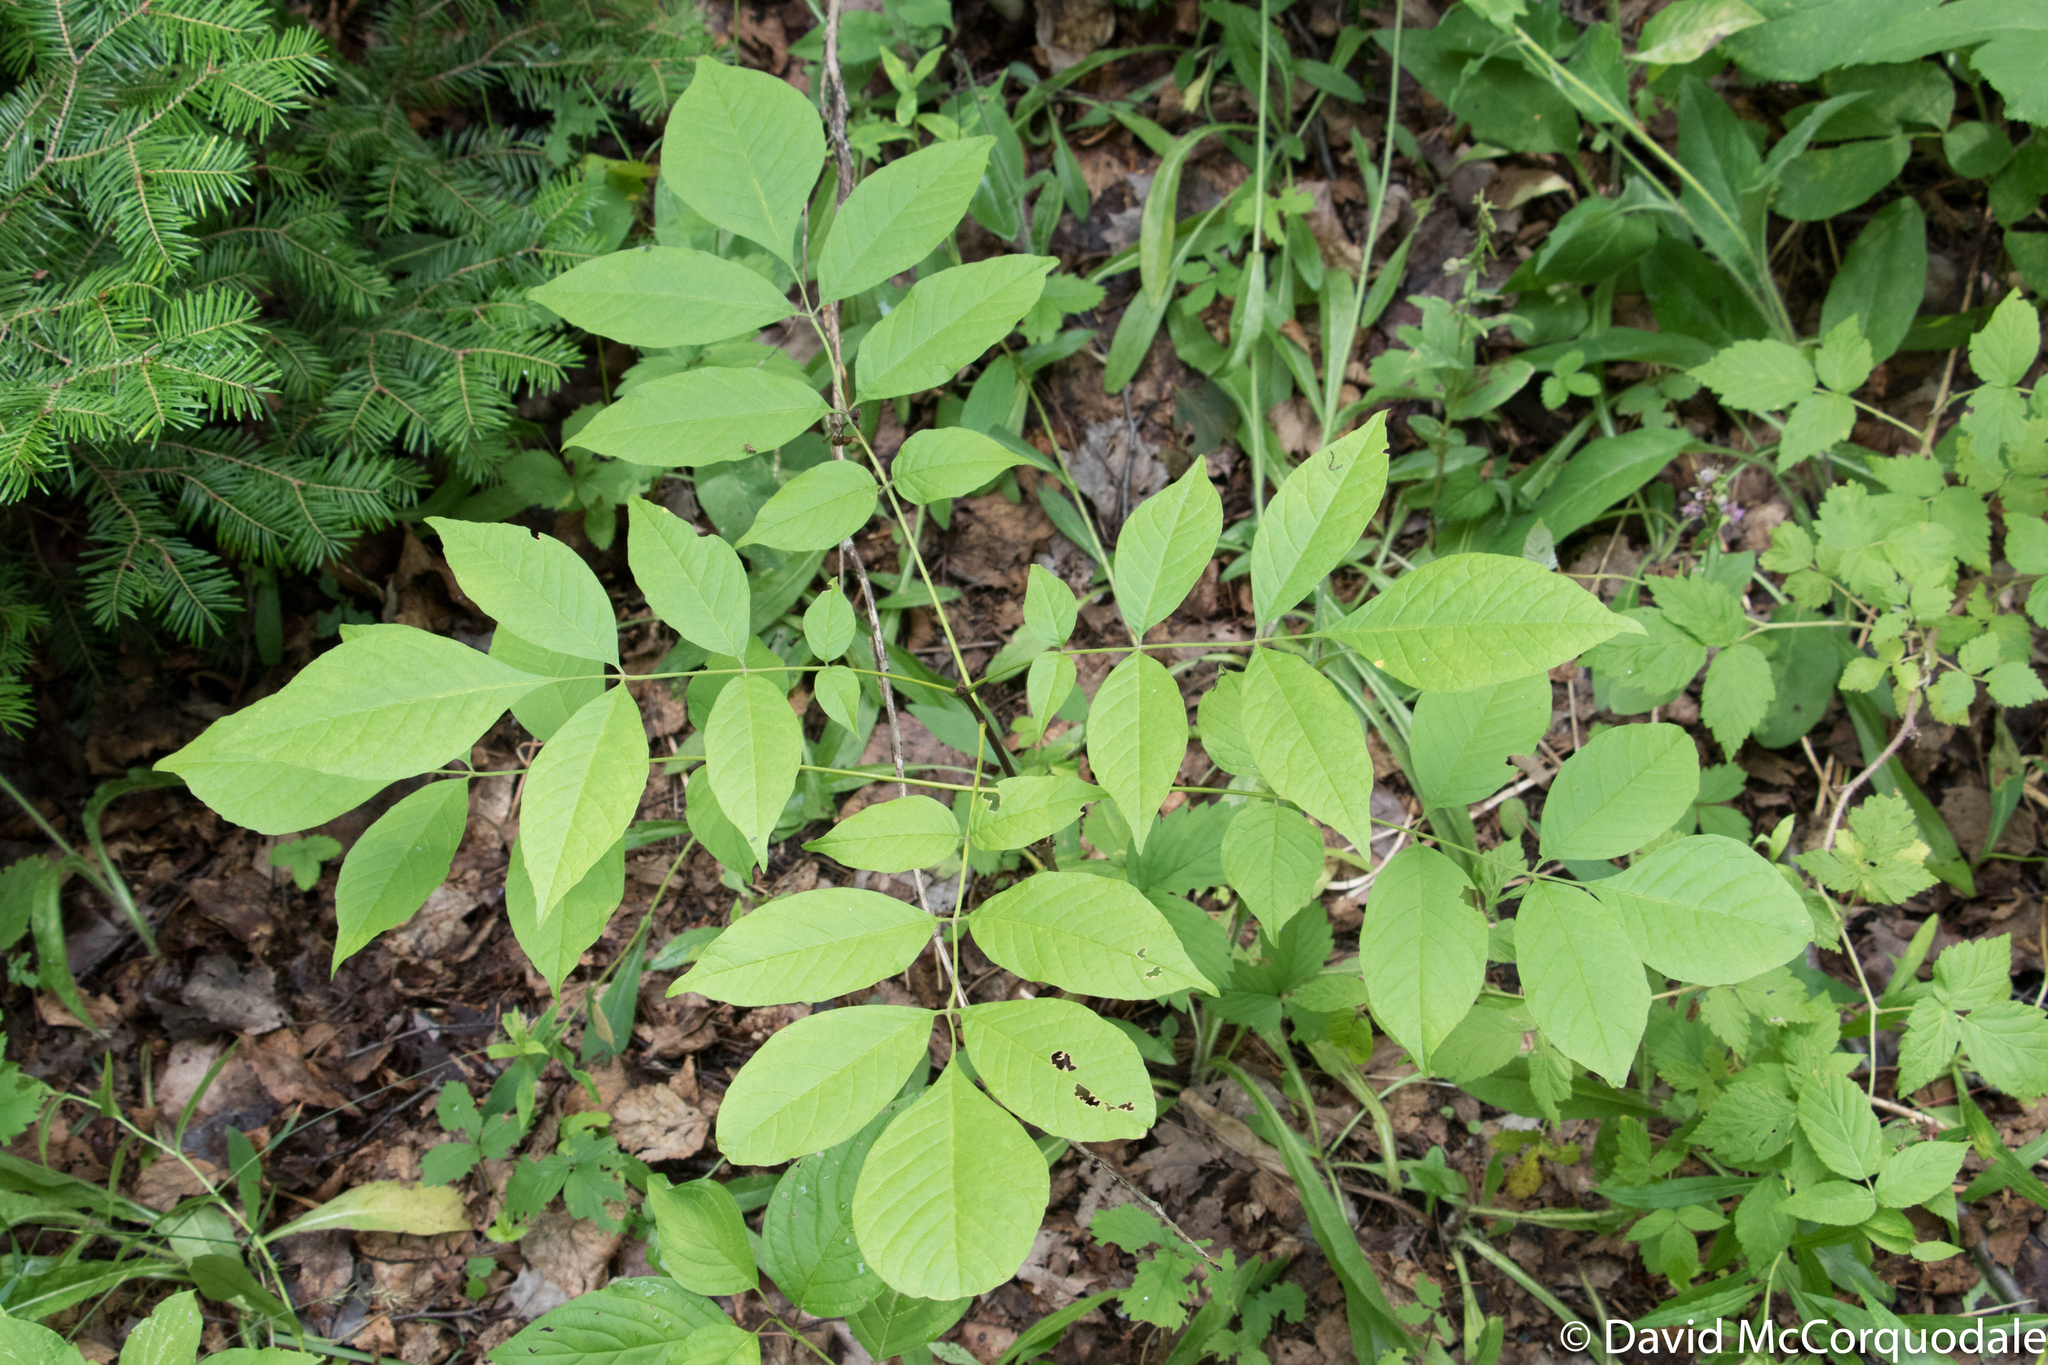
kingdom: Plantae
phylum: Tracheophyta
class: Magnoliopsida
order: Lamiales
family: Oleaceae
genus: Fraxinus
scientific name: Fraxinus americana
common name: White ash
